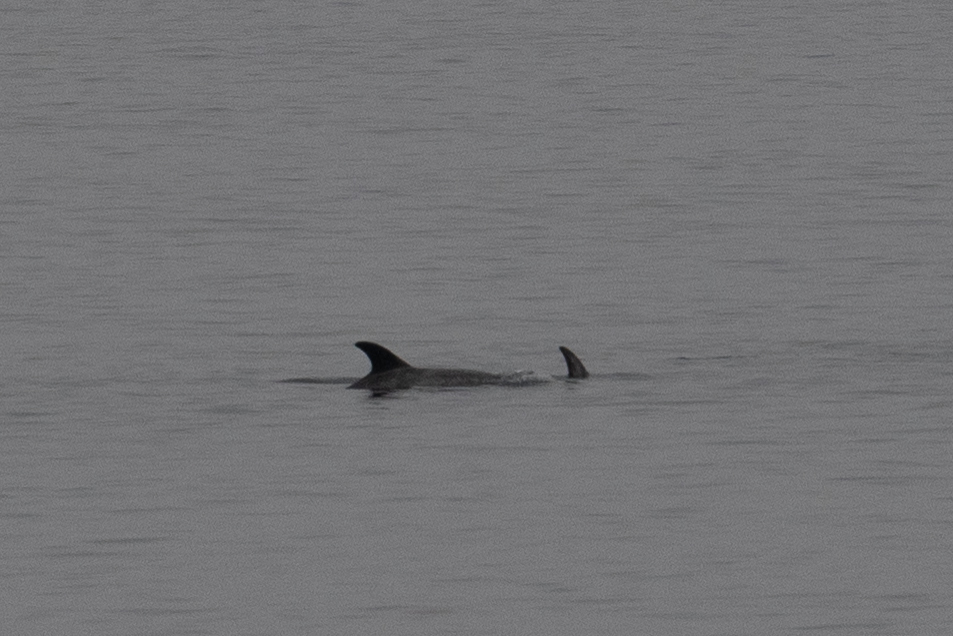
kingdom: Animalia
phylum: Chordata
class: Mammalia
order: Cetacea
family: Delphinidae
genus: Grampus
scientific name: Grampus griseus
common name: Risso's dolphin
